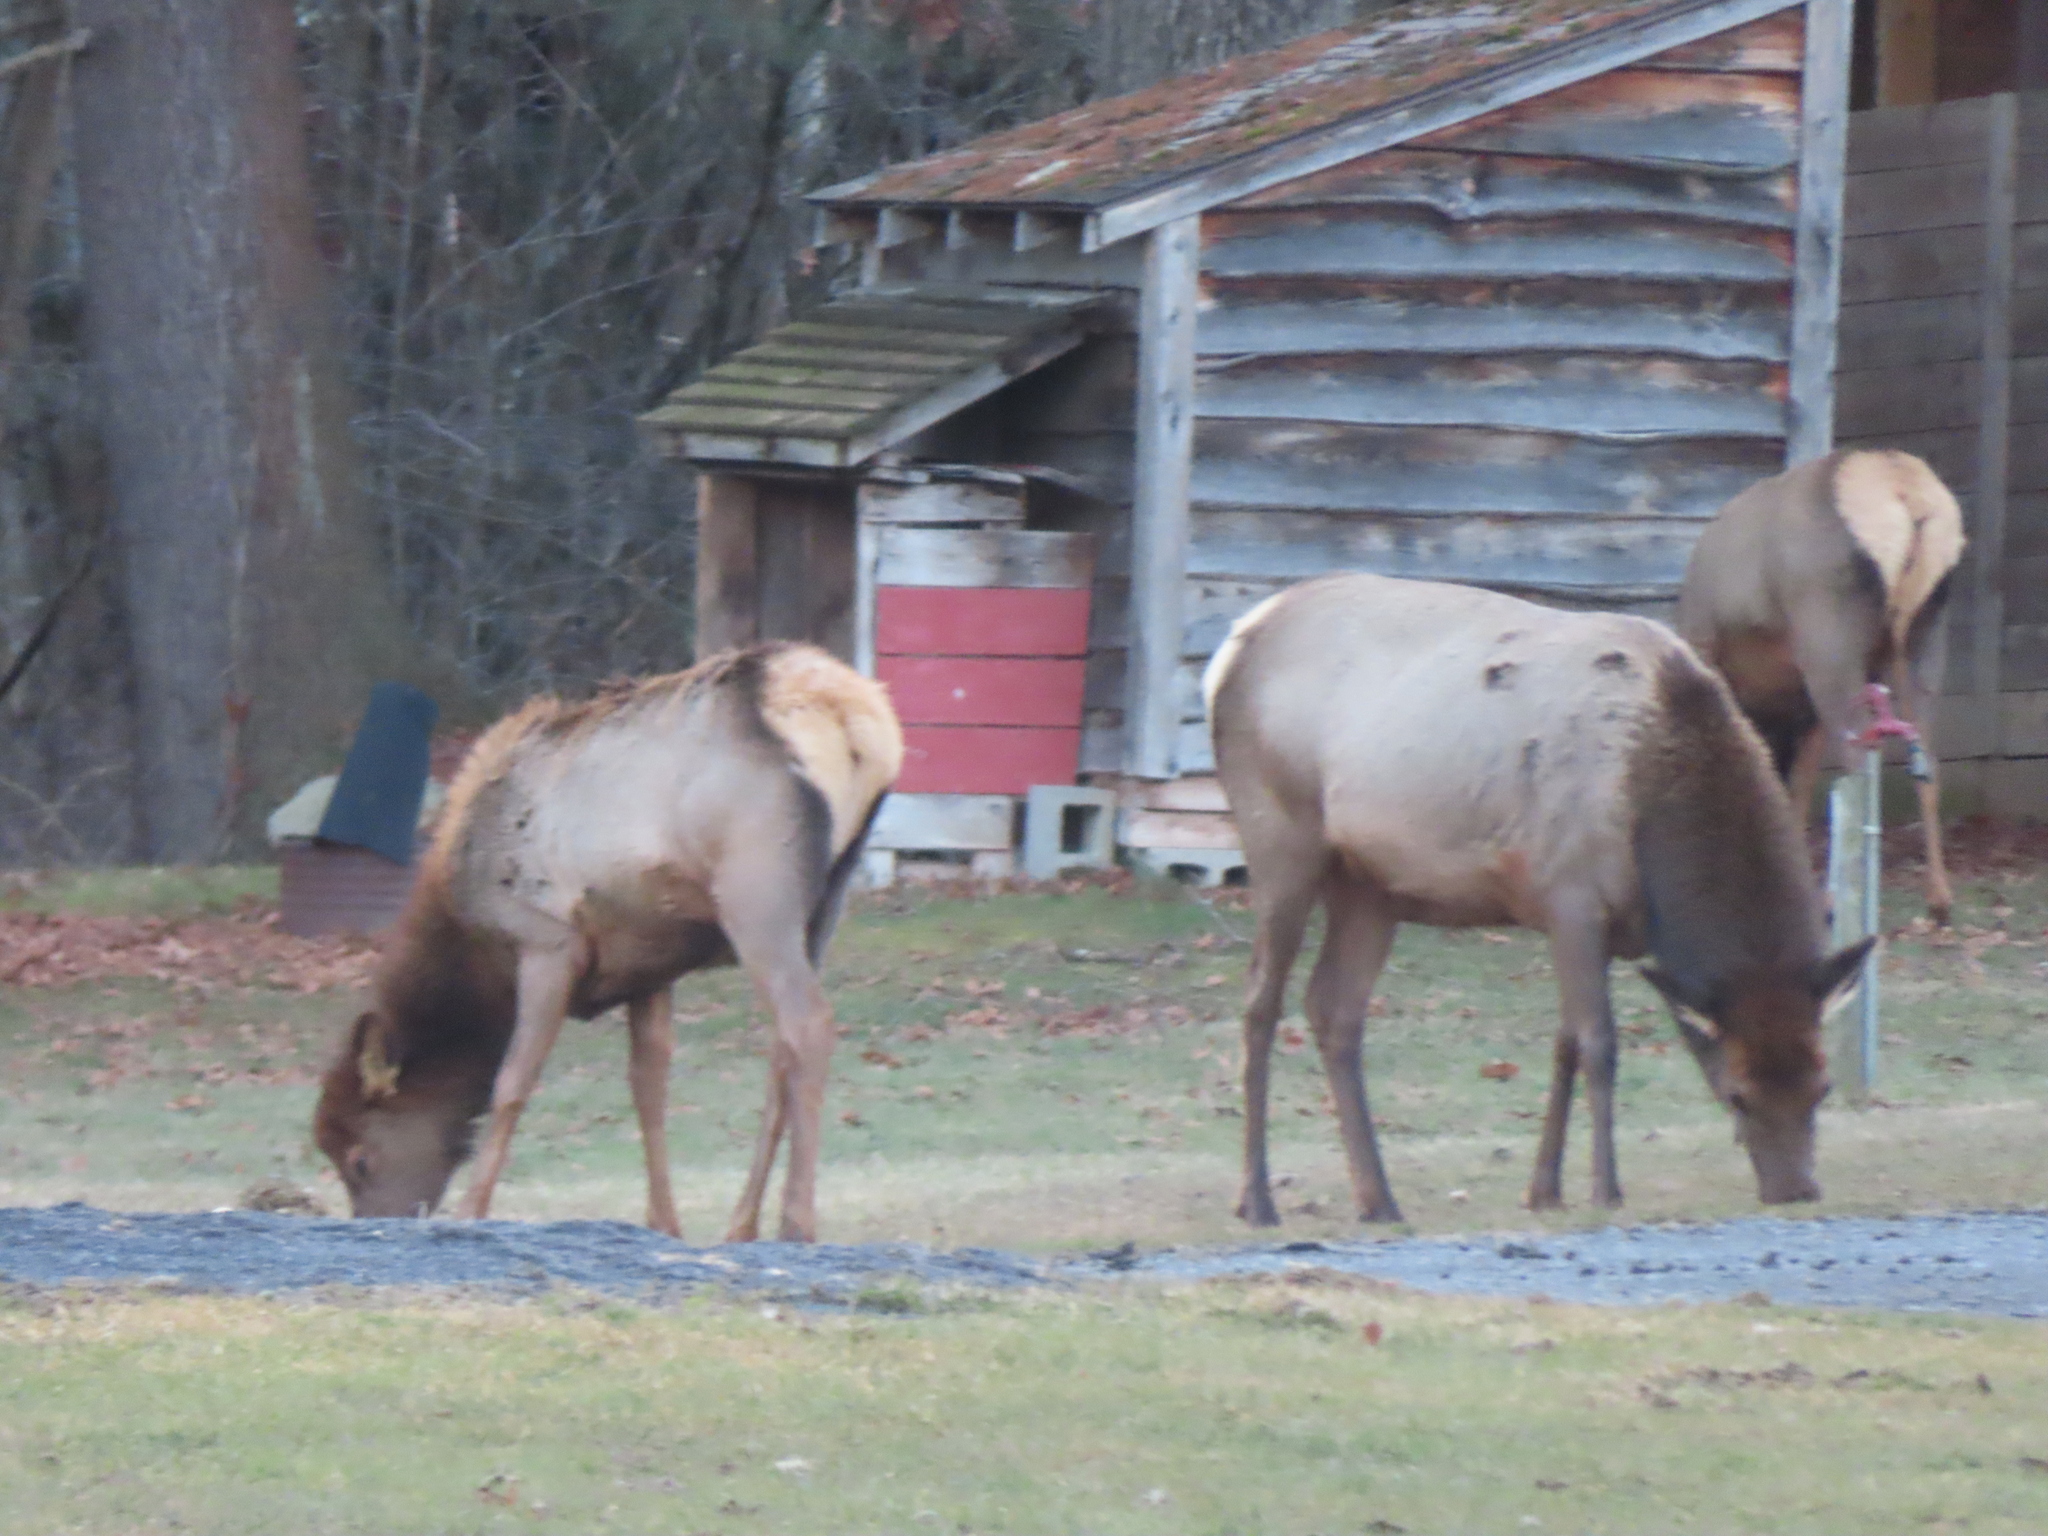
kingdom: Animalia
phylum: Chordata
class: Mammalia
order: Artiodactyla
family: Cervidae
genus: Cervus
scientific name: Cervus elaphus
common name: Red deer
